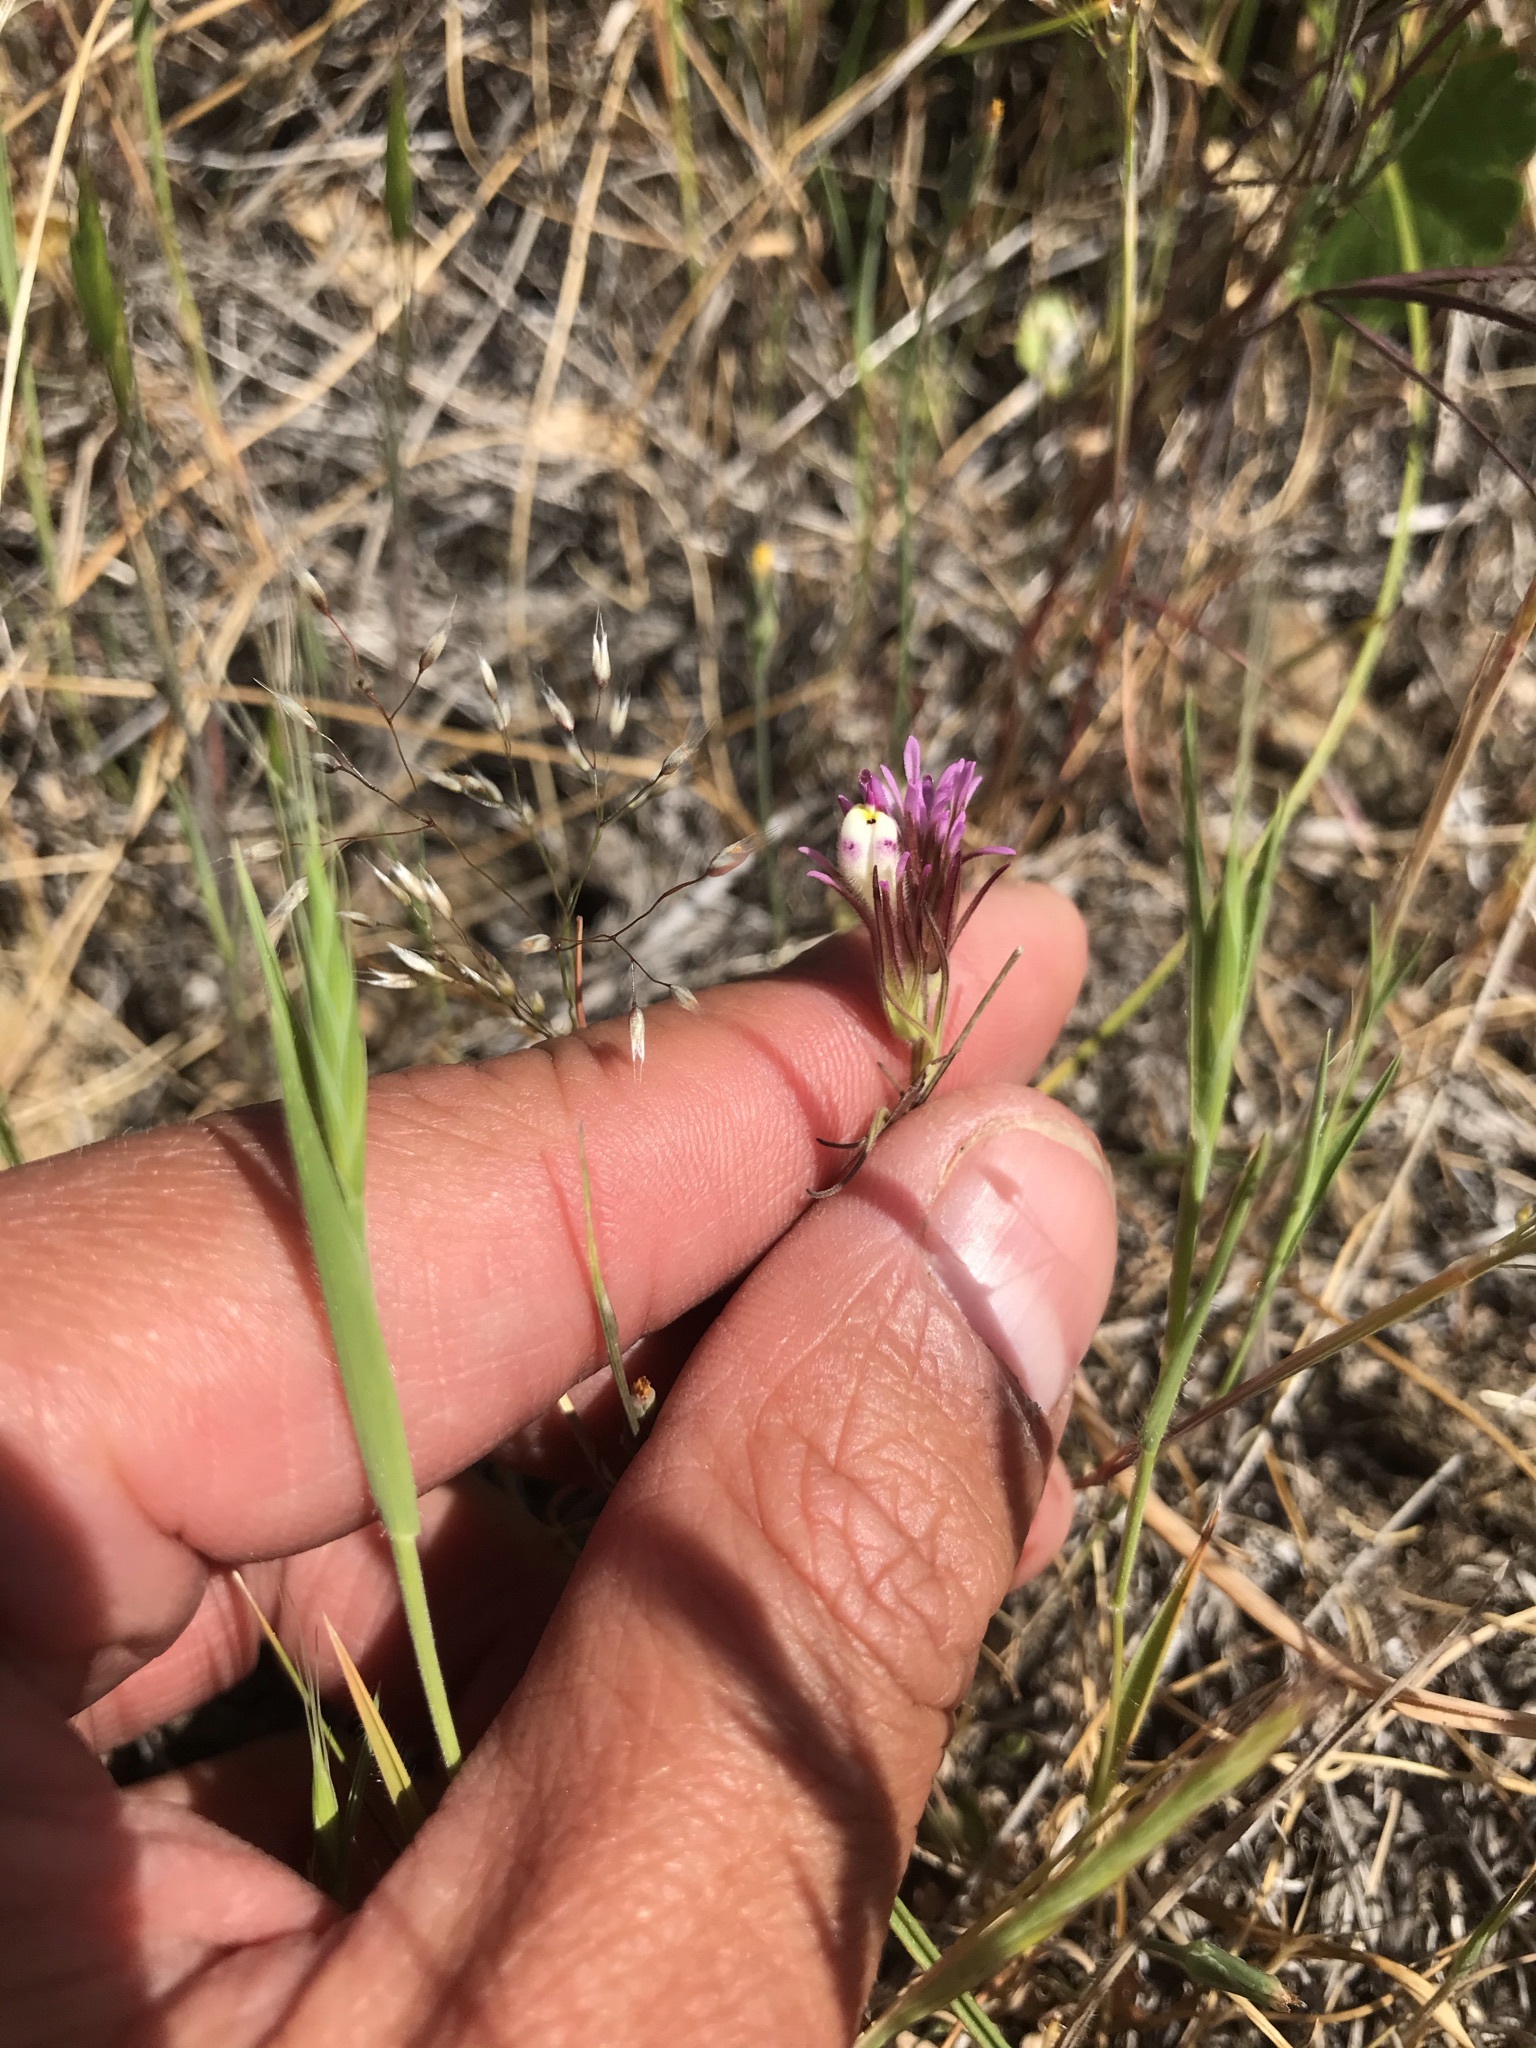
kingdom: Plantae
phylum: Tracheophyta
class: Magnoliopsida
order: Lamiales
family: Orobanchaceae
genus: Castilleja
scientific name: Castilleja densiflora
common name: Dense-flower indian paintbrush
